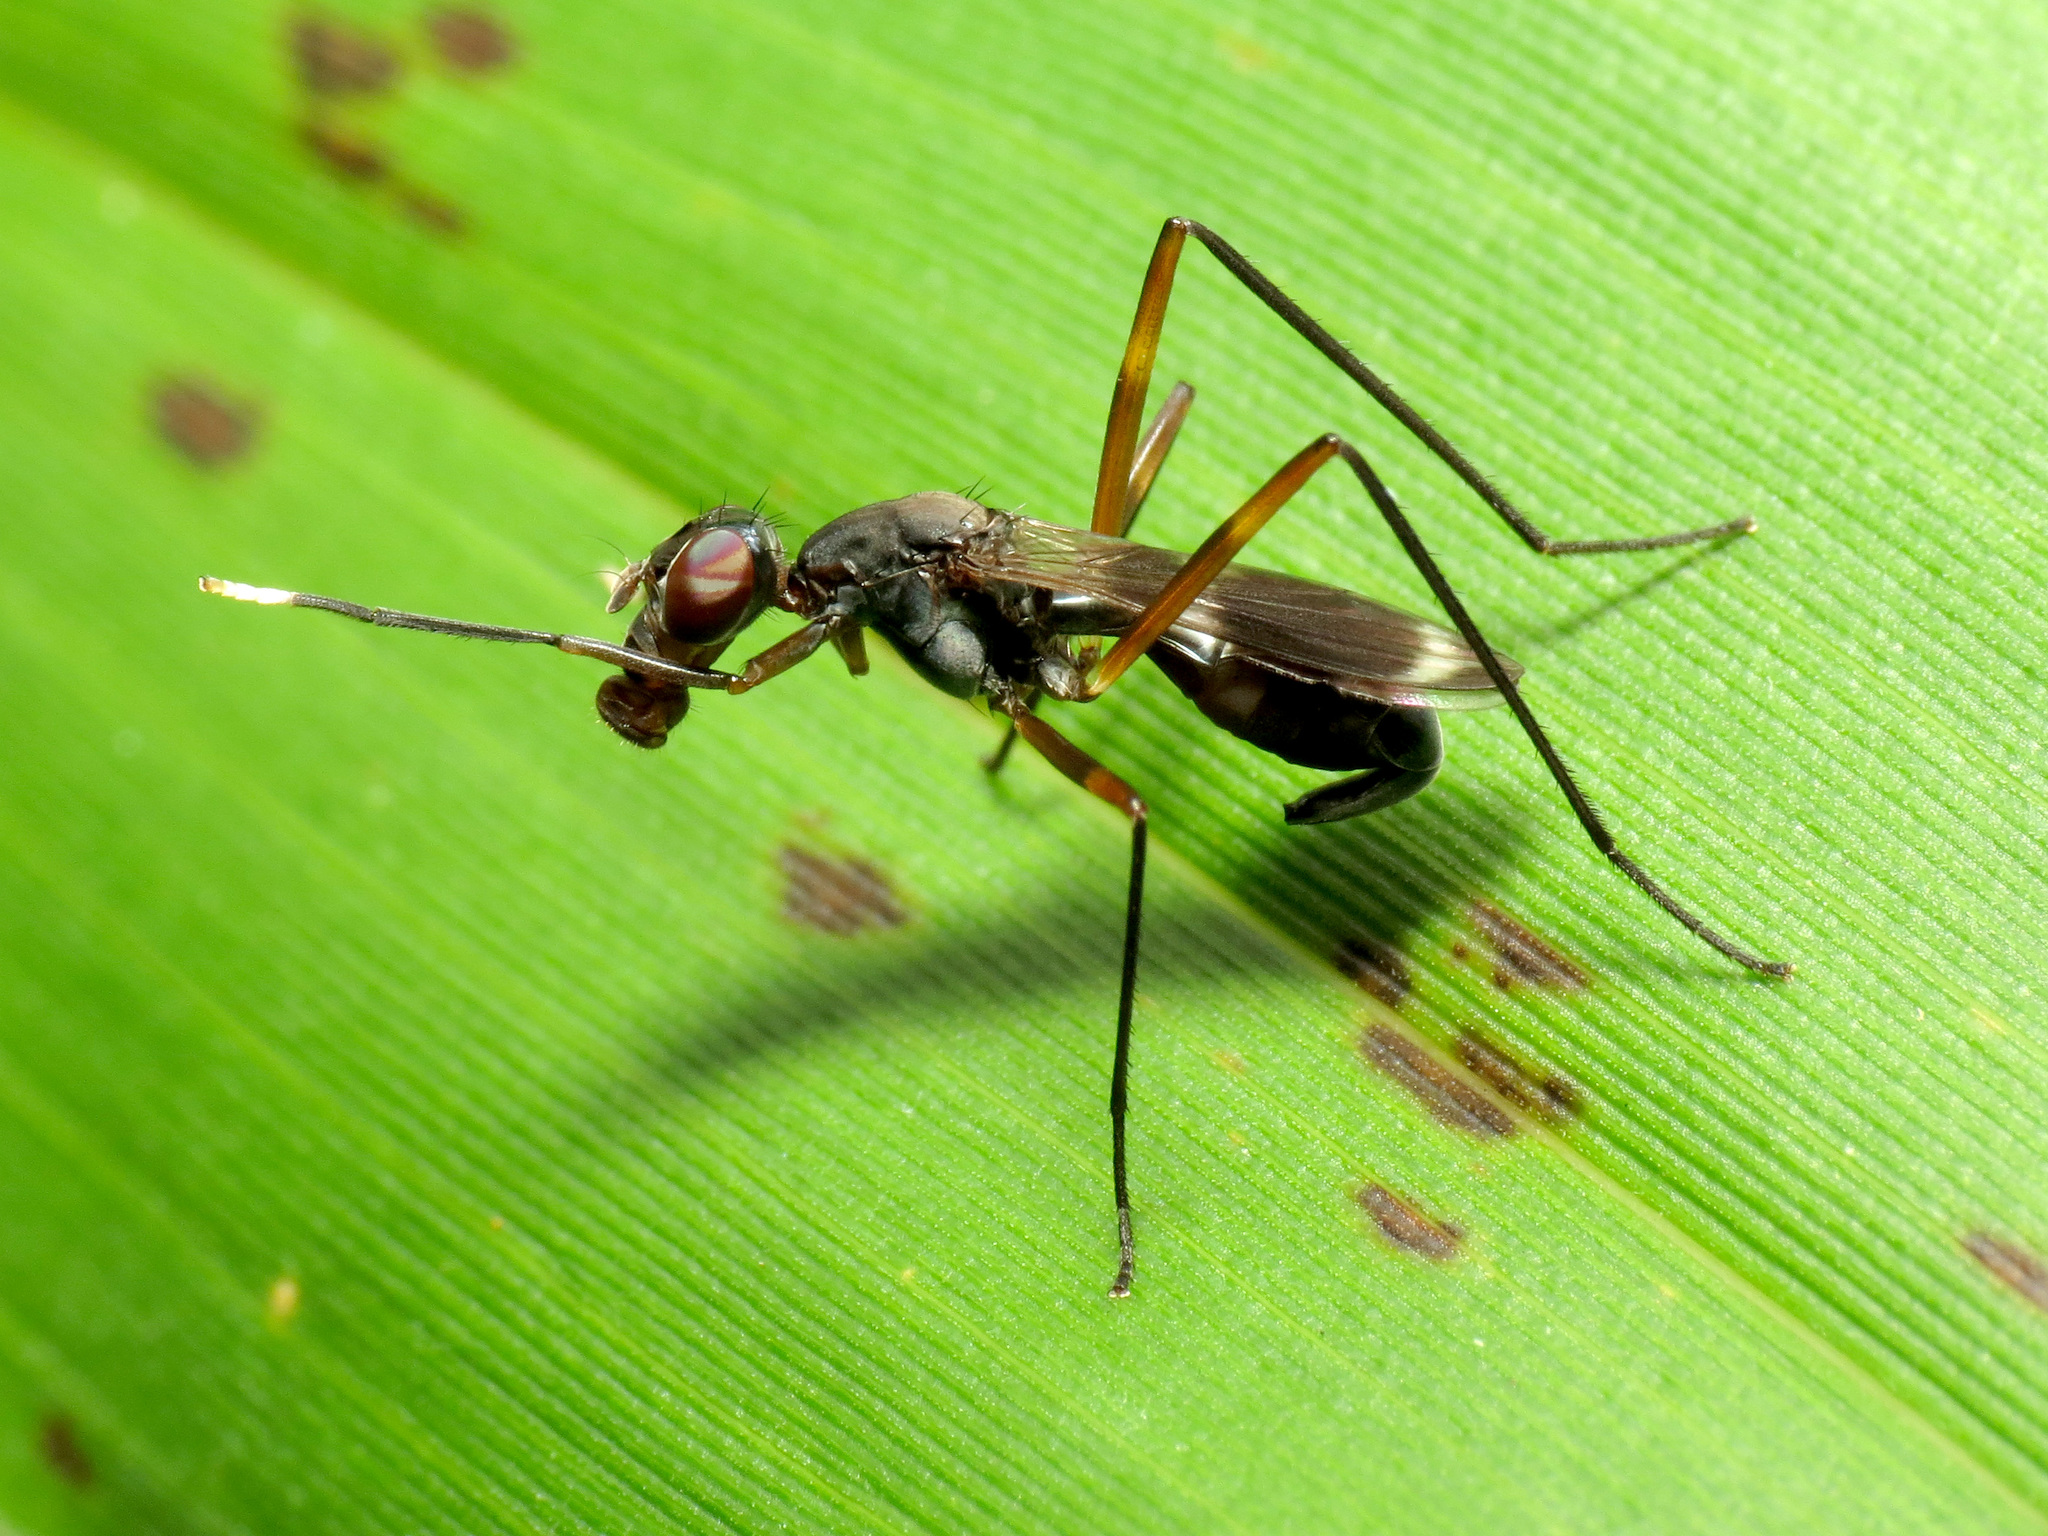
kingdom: Animalia
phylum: Arthropoda
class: Insecta
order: Diptera
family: Micropezidae
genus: Taeniaptera
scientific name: Taeniaptera trivittata
